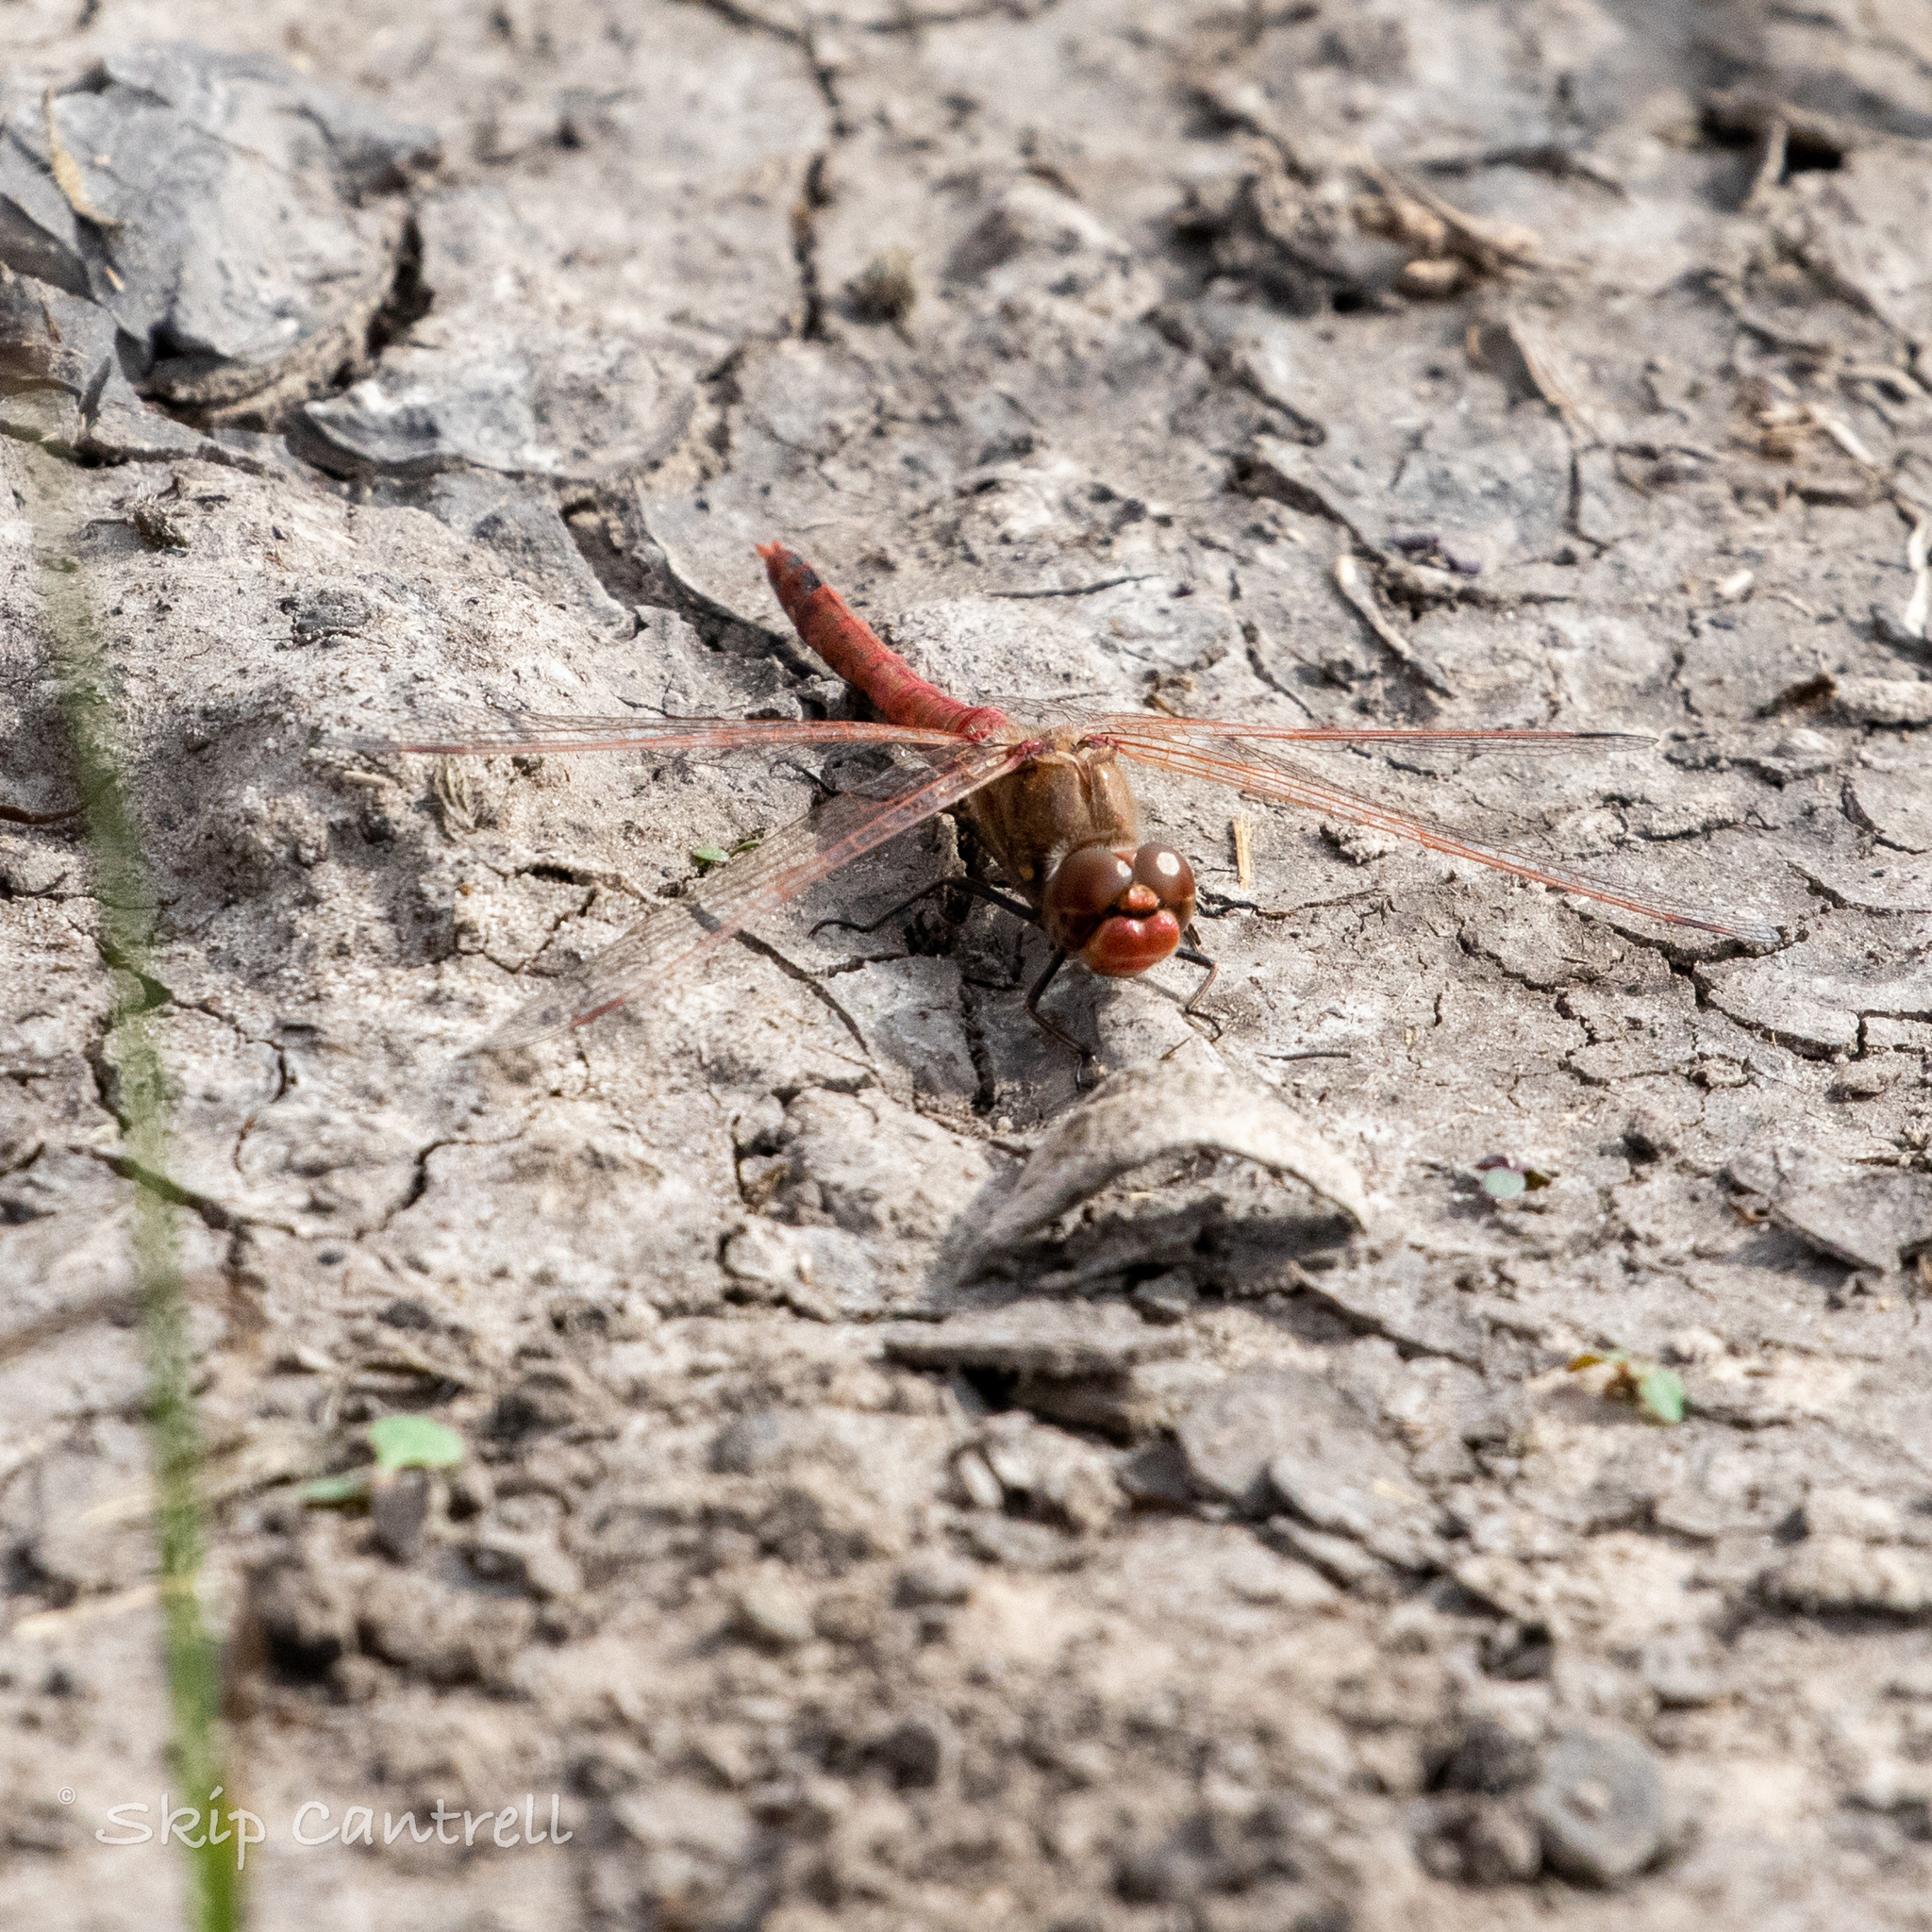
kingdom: Animalia
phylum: Arthropoda
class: Insecta
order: Odonata
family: Libellulidae
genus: Sympetrum
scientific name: Sympetrum corruptum
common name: Variegated meadowhawk
